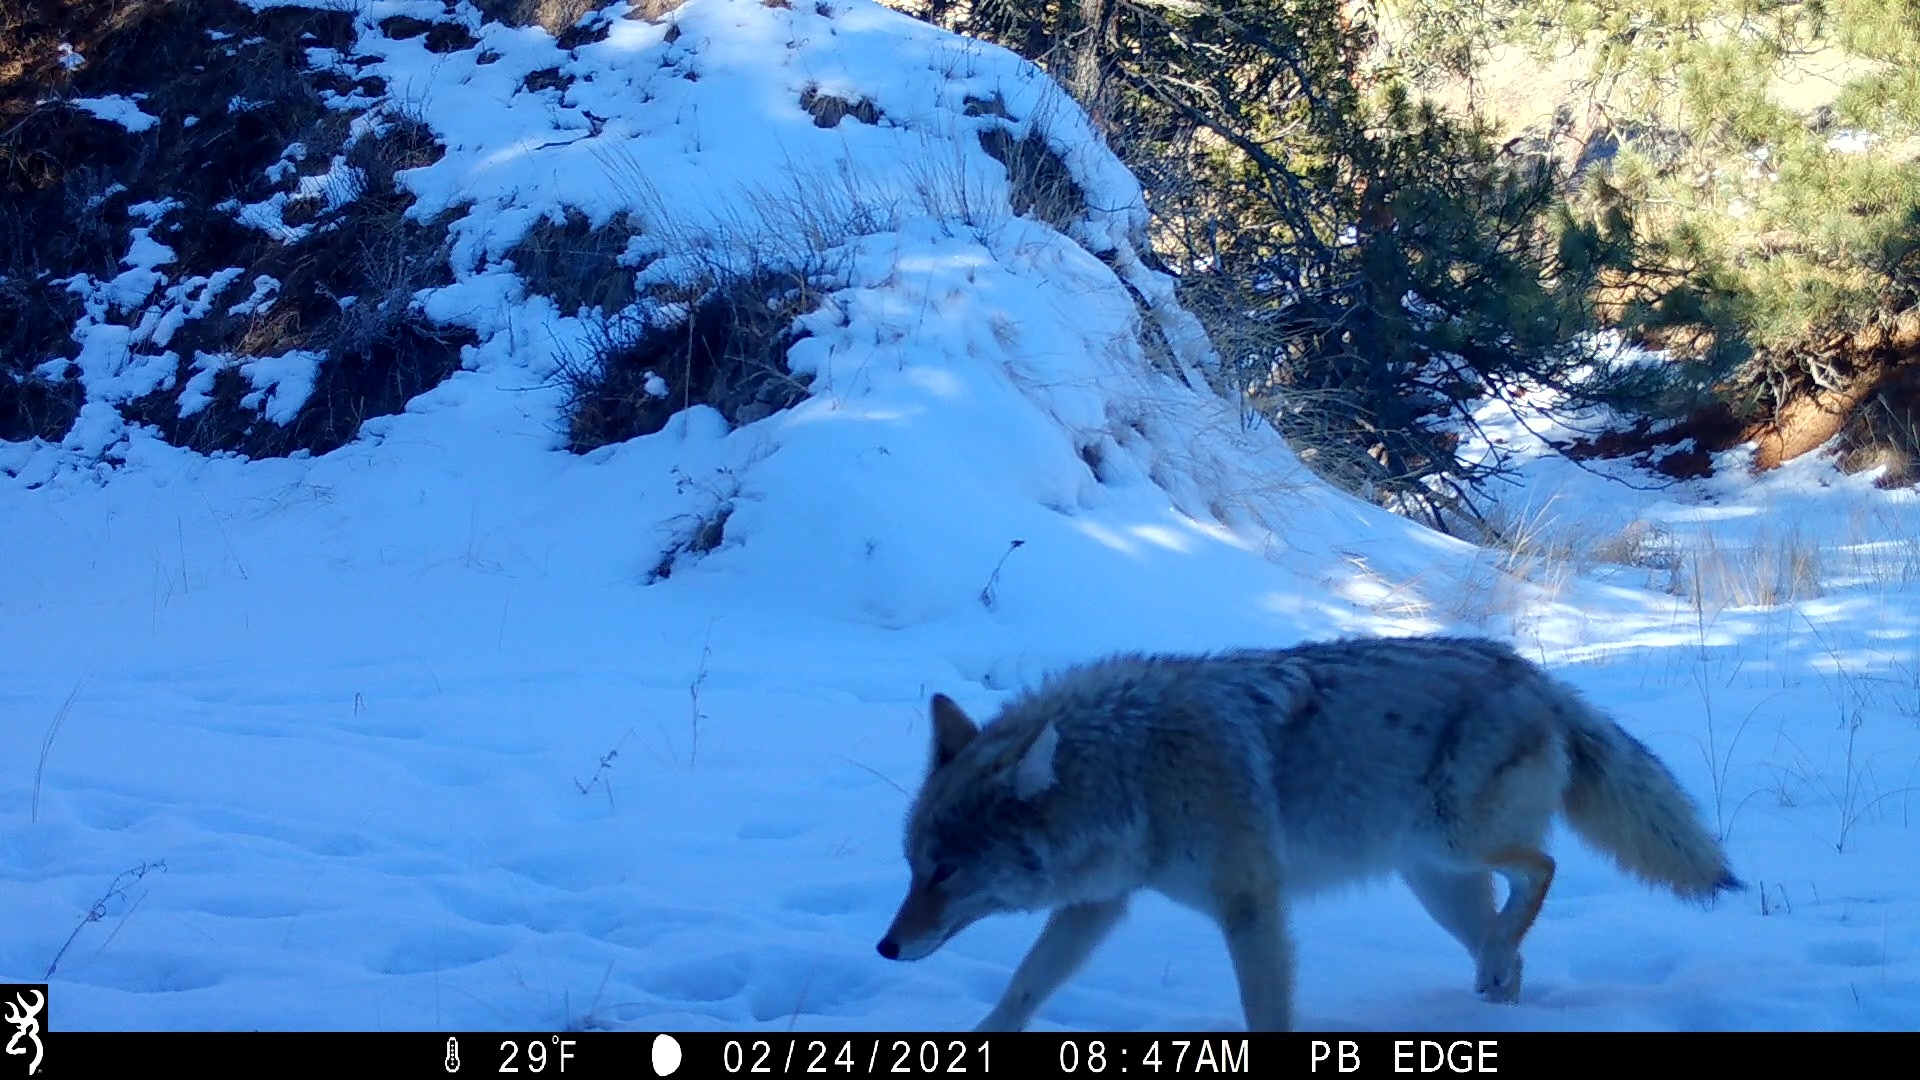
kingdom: Animalia
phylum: Chordata
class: Mammalia
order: Carnivora
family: Canidae
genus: Canis
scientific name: Canis latrans
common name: Coyote
